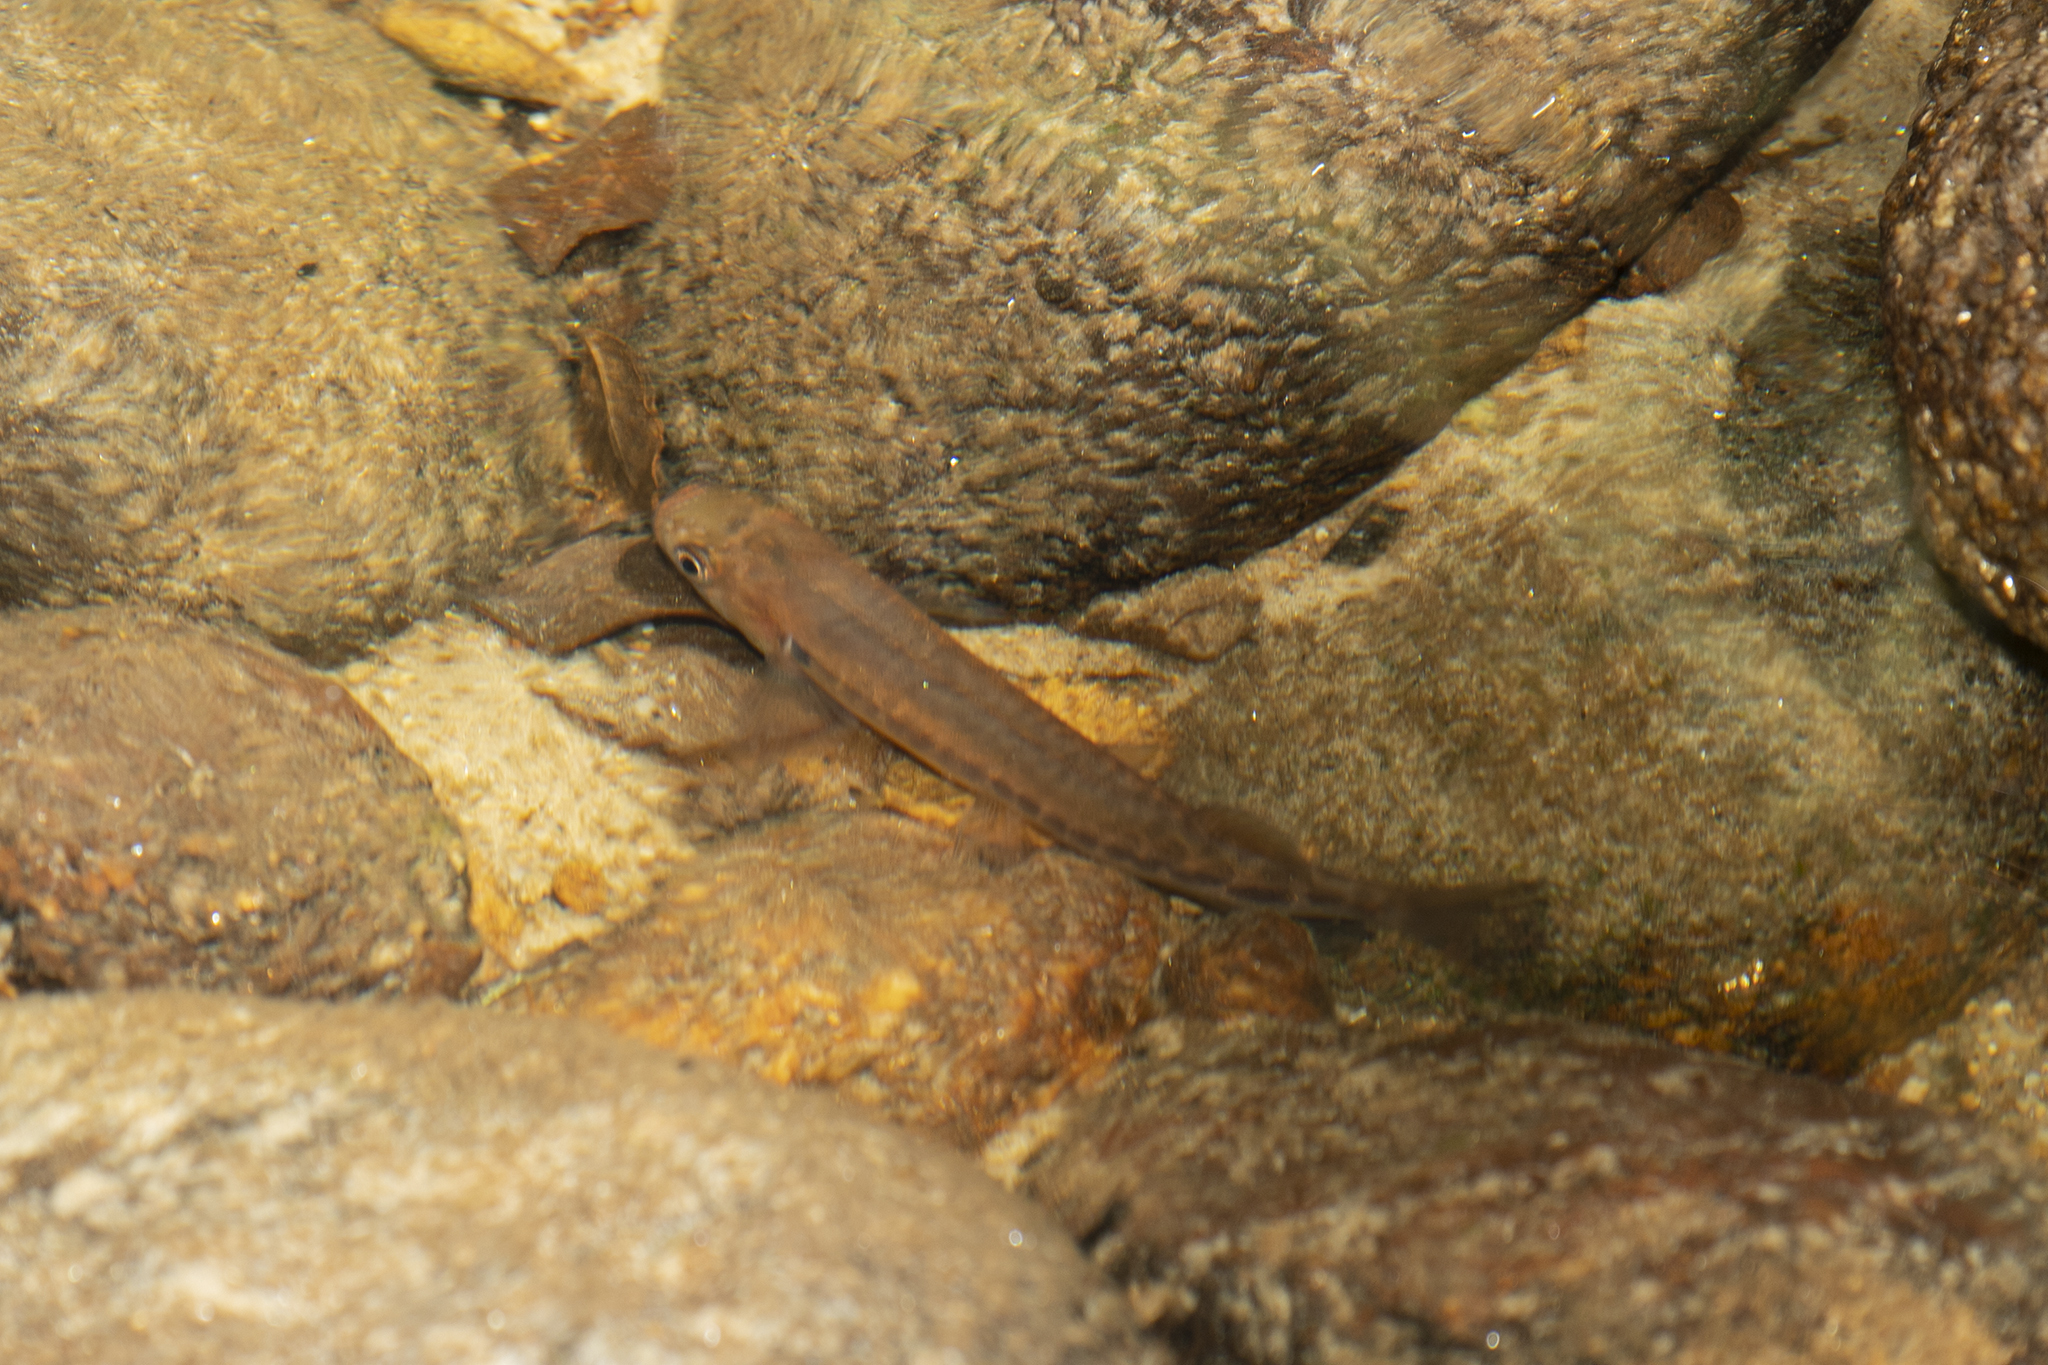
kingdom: Animalia
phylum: Chordata
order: Osmeriformes
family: Galaxiidae
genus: Galaxias
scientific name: Galaxias fasciatus
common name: Banded kokopu
